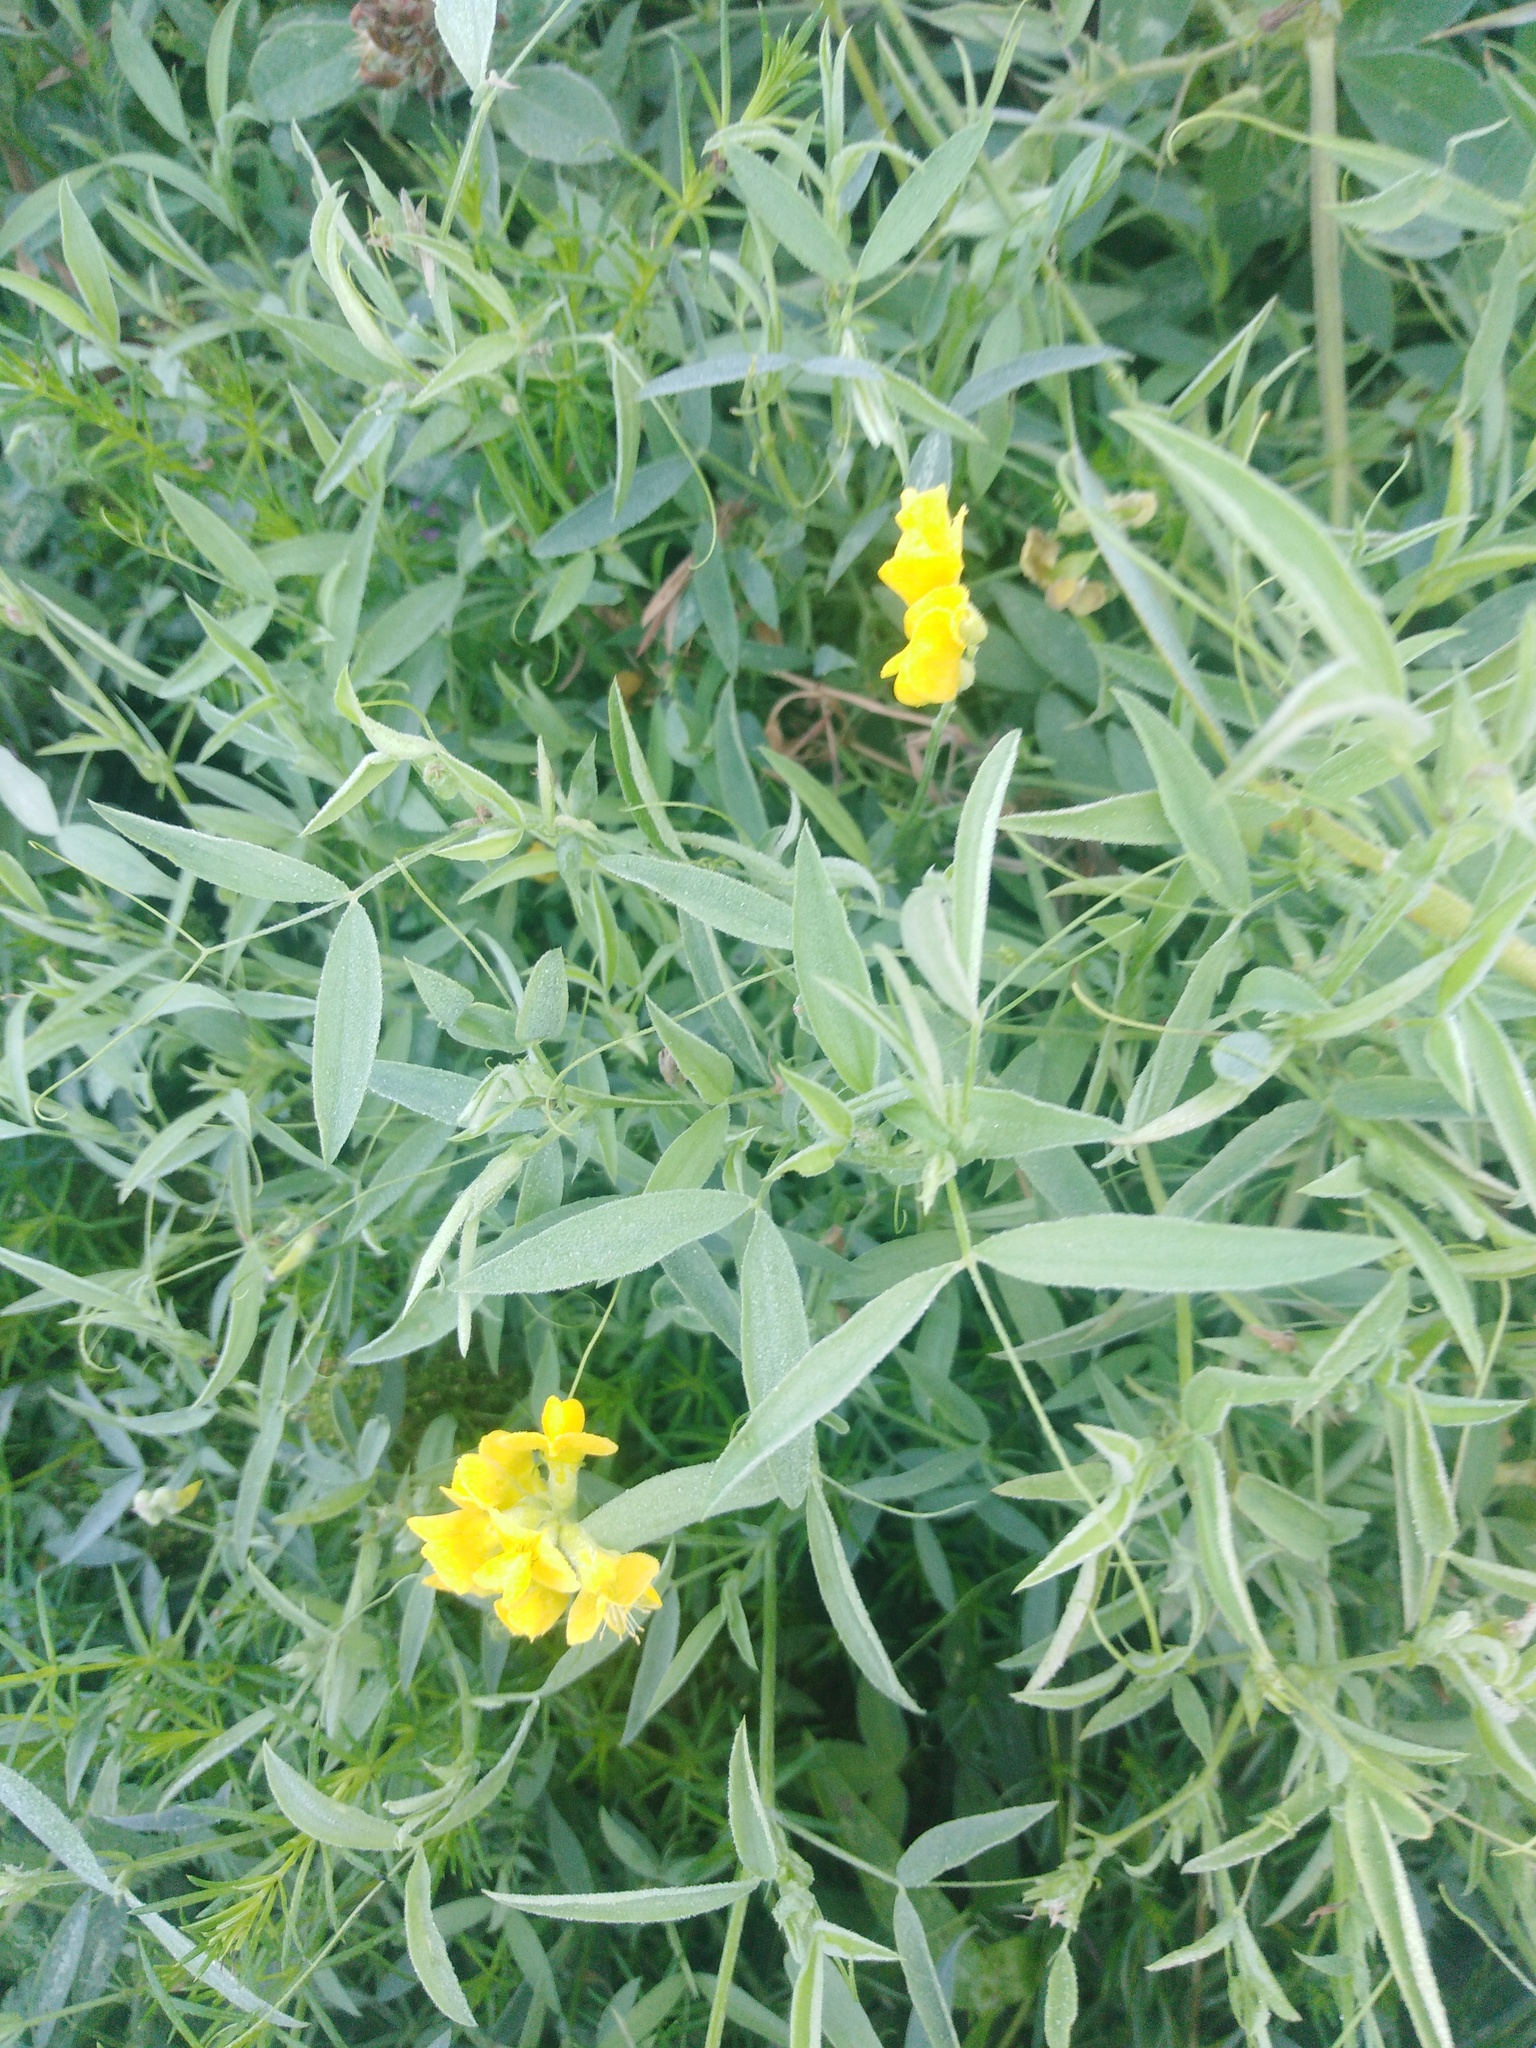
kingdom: Plantae
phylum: Tracheophyta
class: Magnoliopsida
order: Fabales
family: Fabaceae
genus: Lathyrus
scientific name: Lathyrus pratensis
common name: Meadow vetchling
